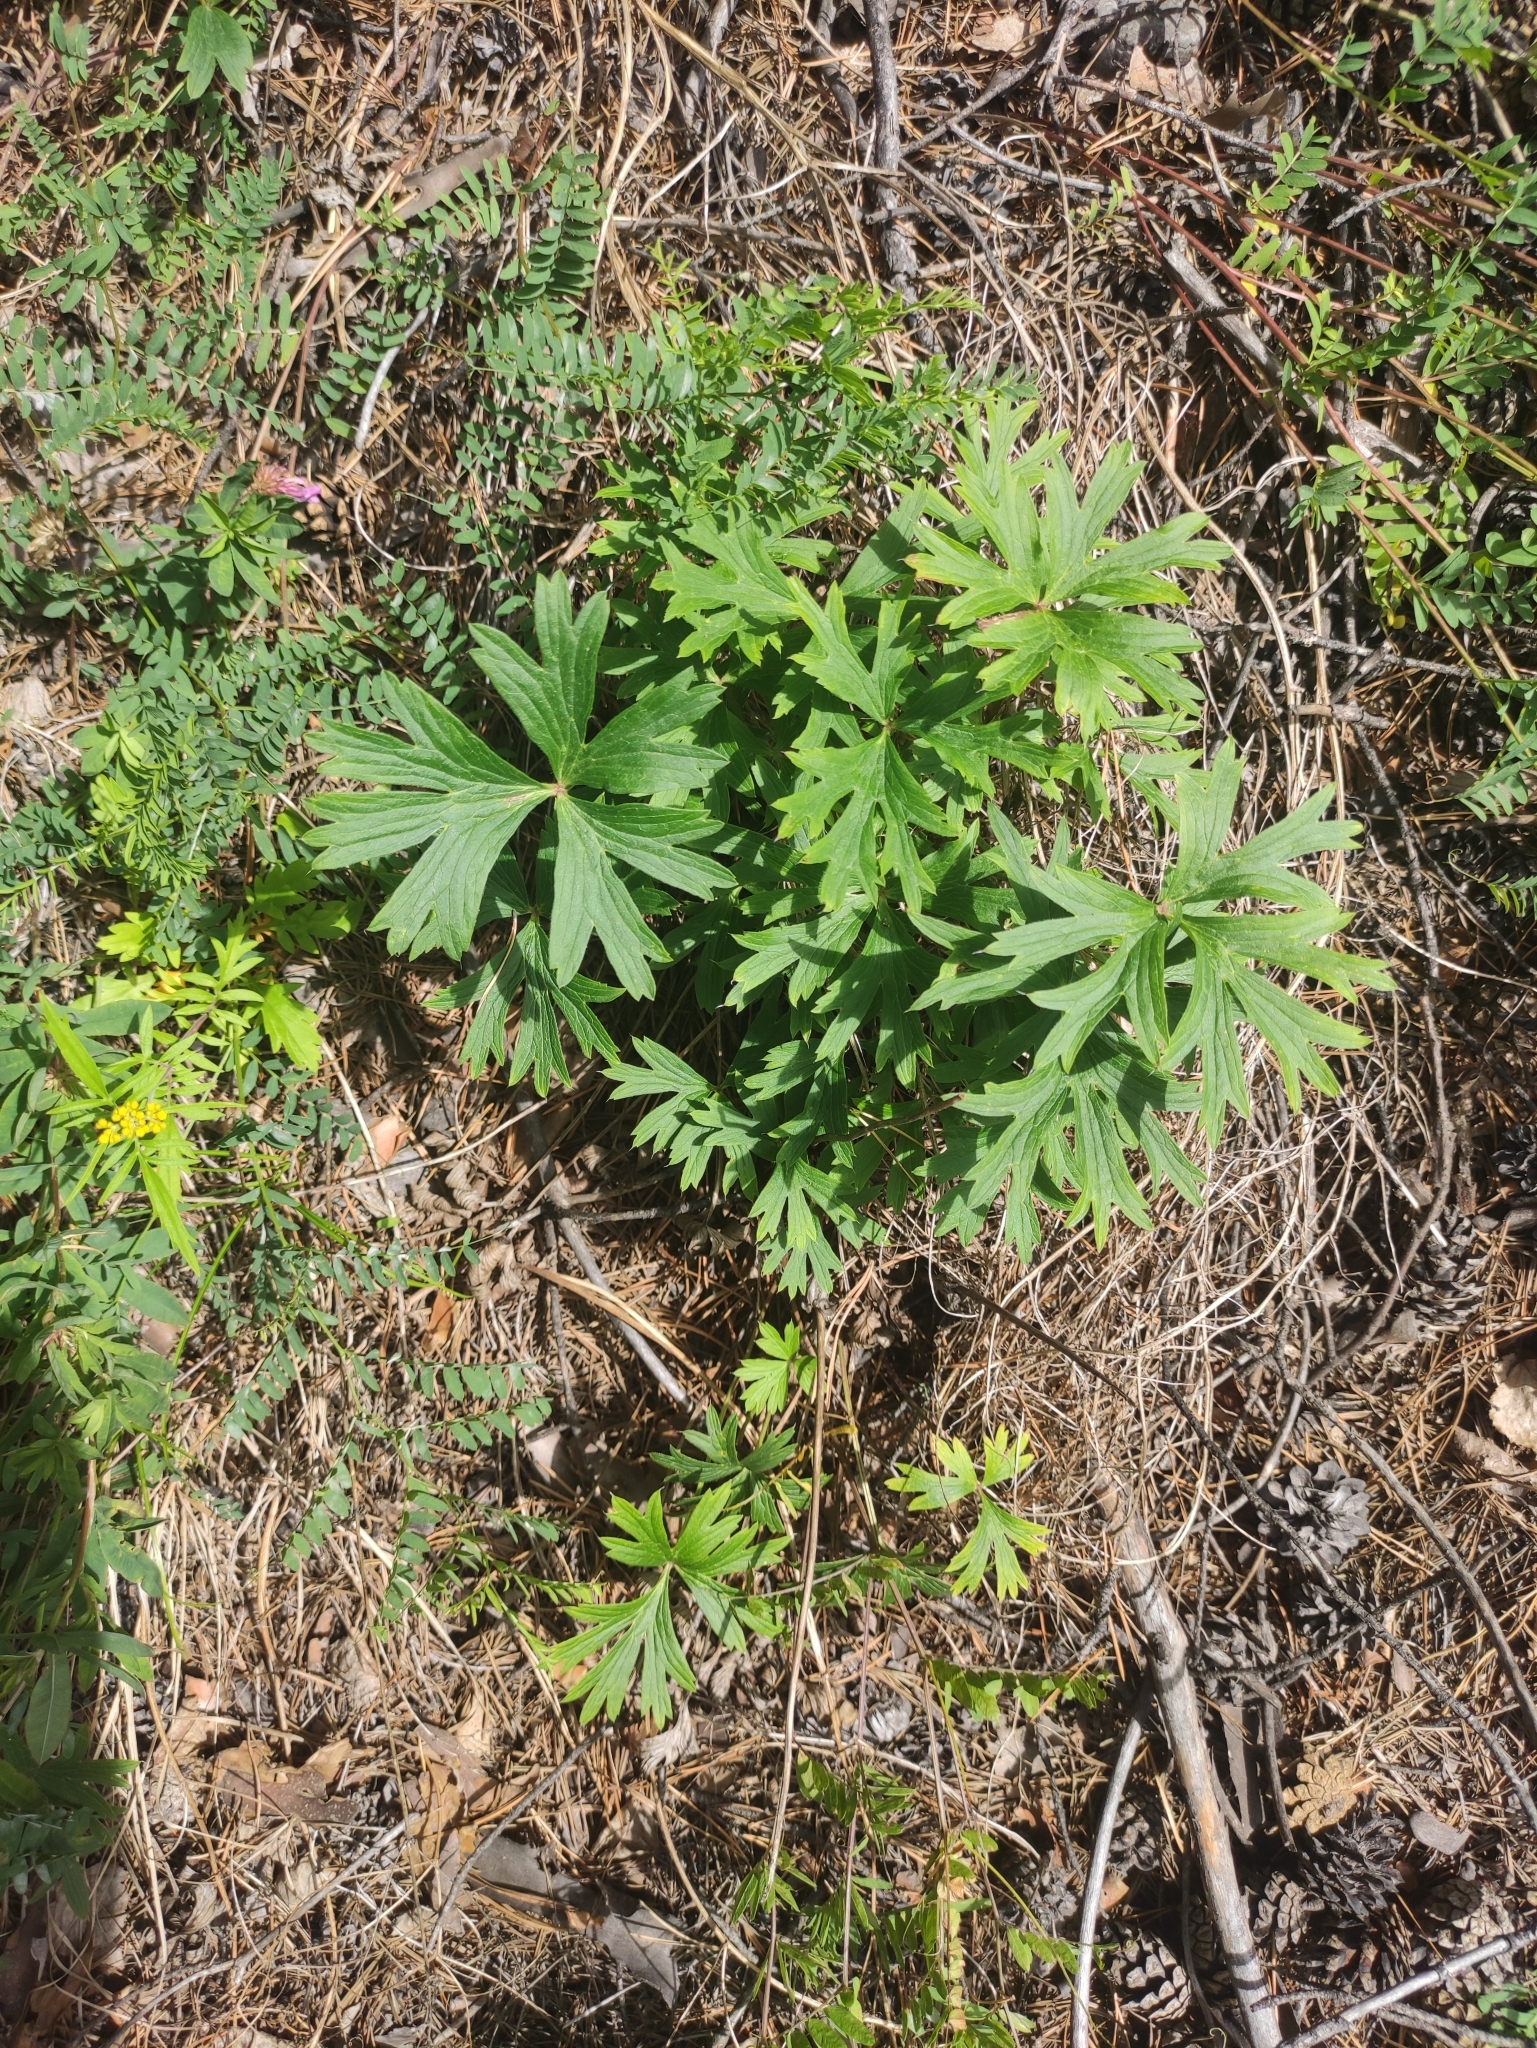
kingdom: Plantae
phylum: Tracheophyta
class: Magnoliopsida
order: Ranunculales
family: Ranunculaceae
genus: Pulsatilla
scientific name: Pulsatilla patens
